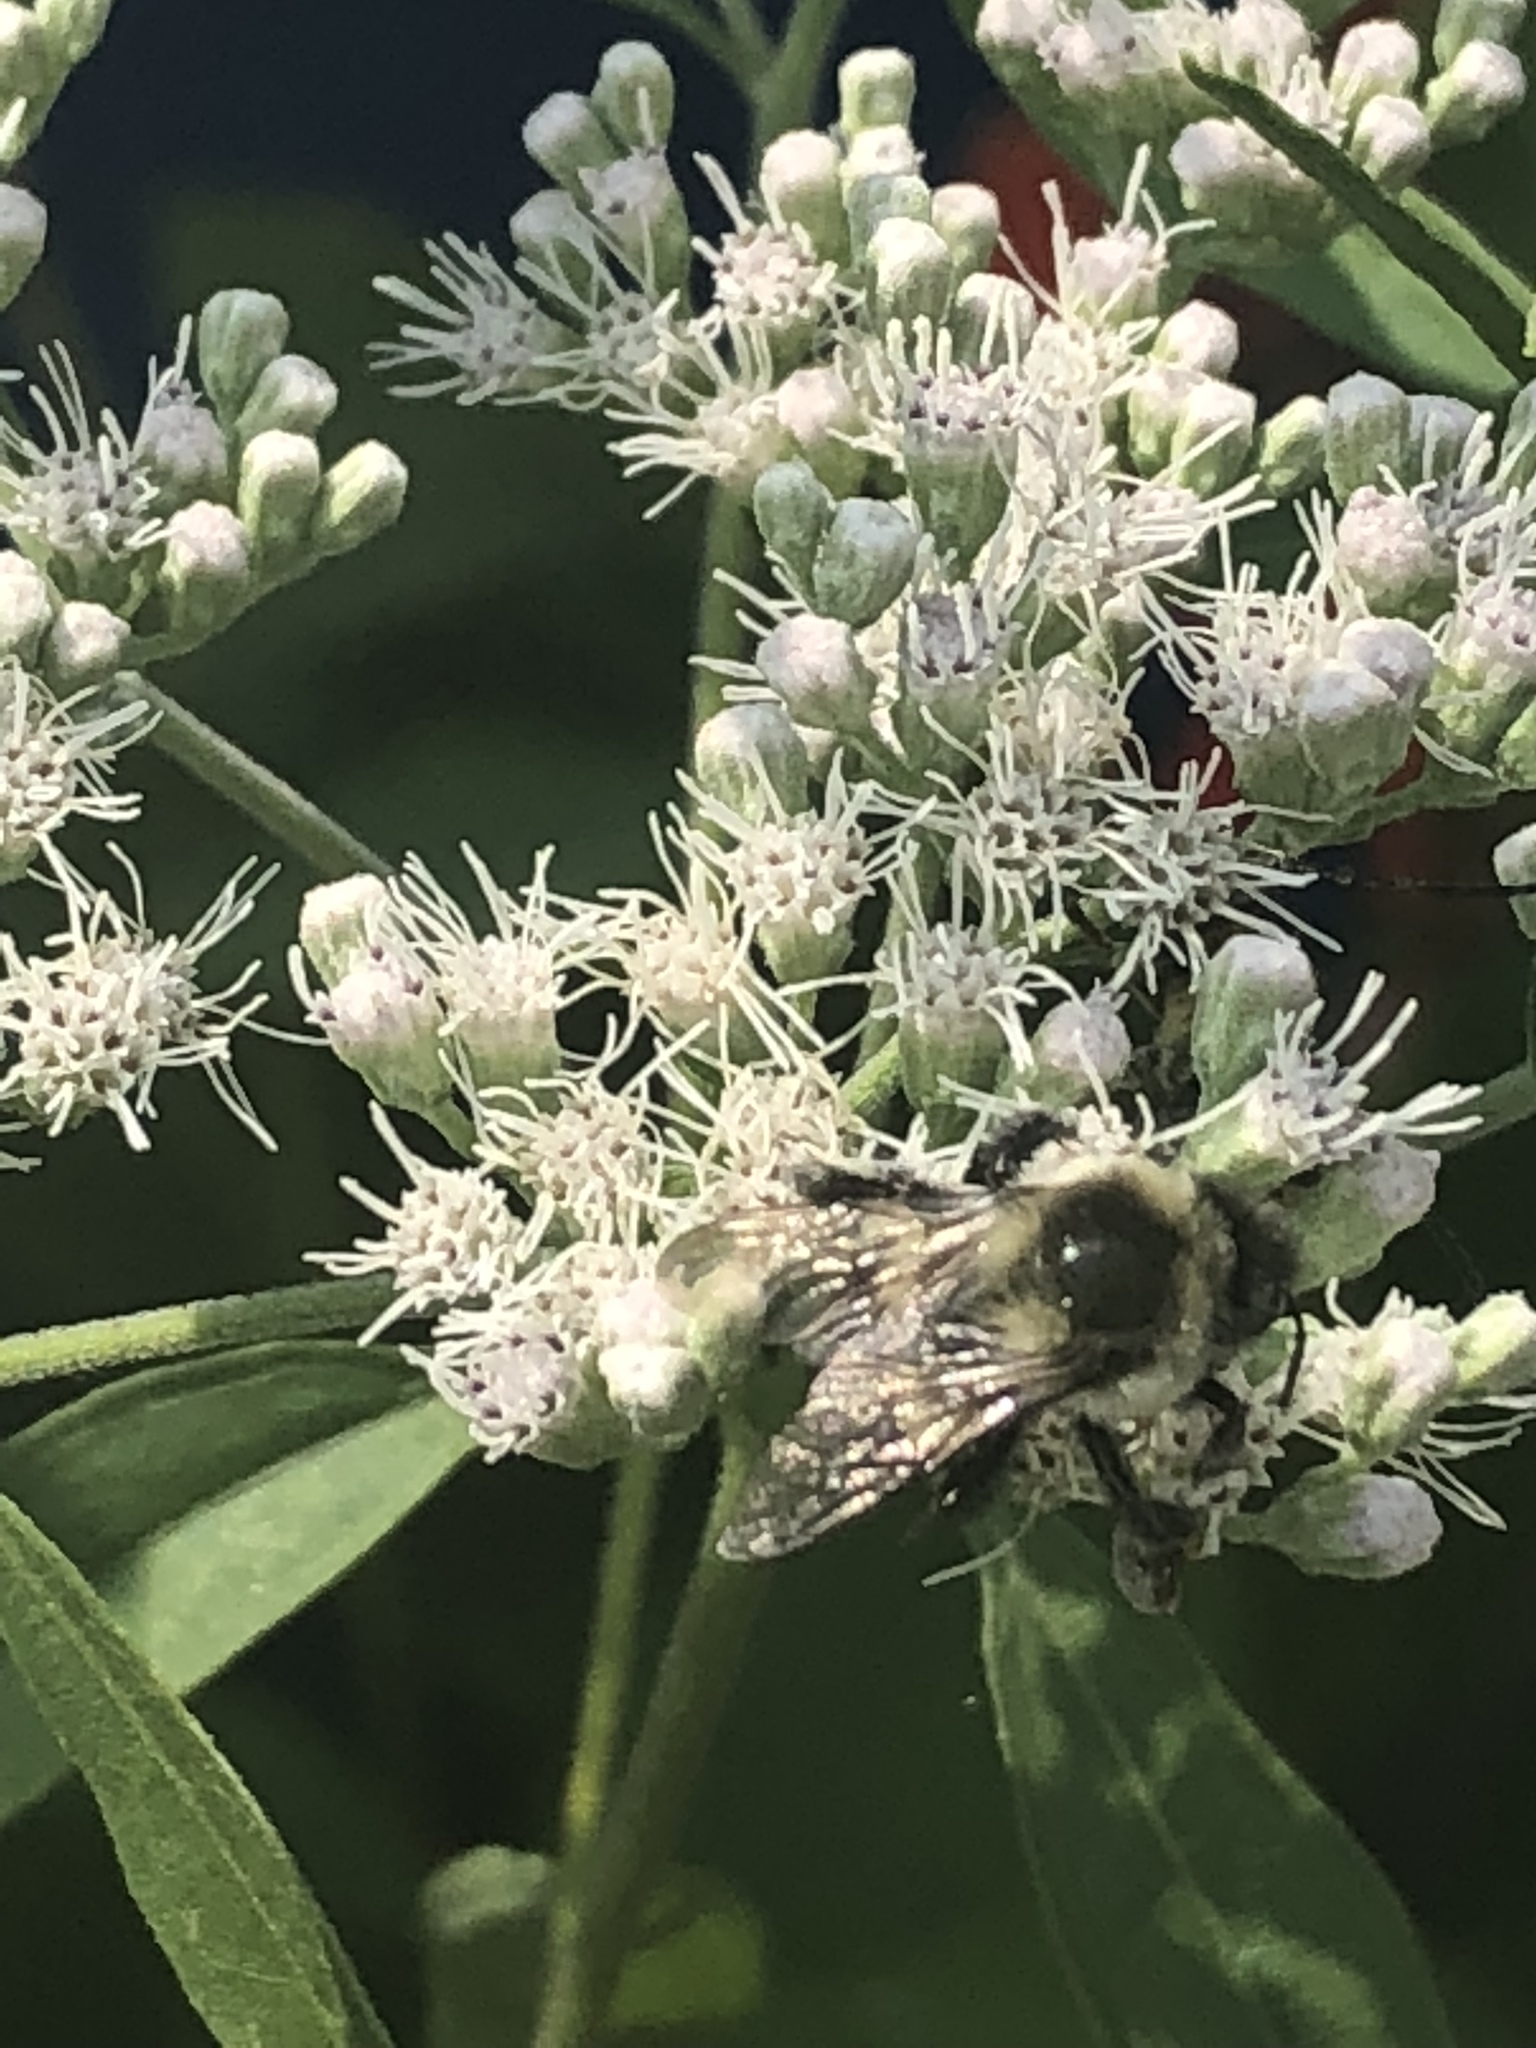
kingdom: Animalia
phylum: Arthropoda
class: Insecta
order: Hymenoptera
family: Apidae
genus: Bombus
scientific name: Bombus impatiens
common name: Common eastern bumble bee
